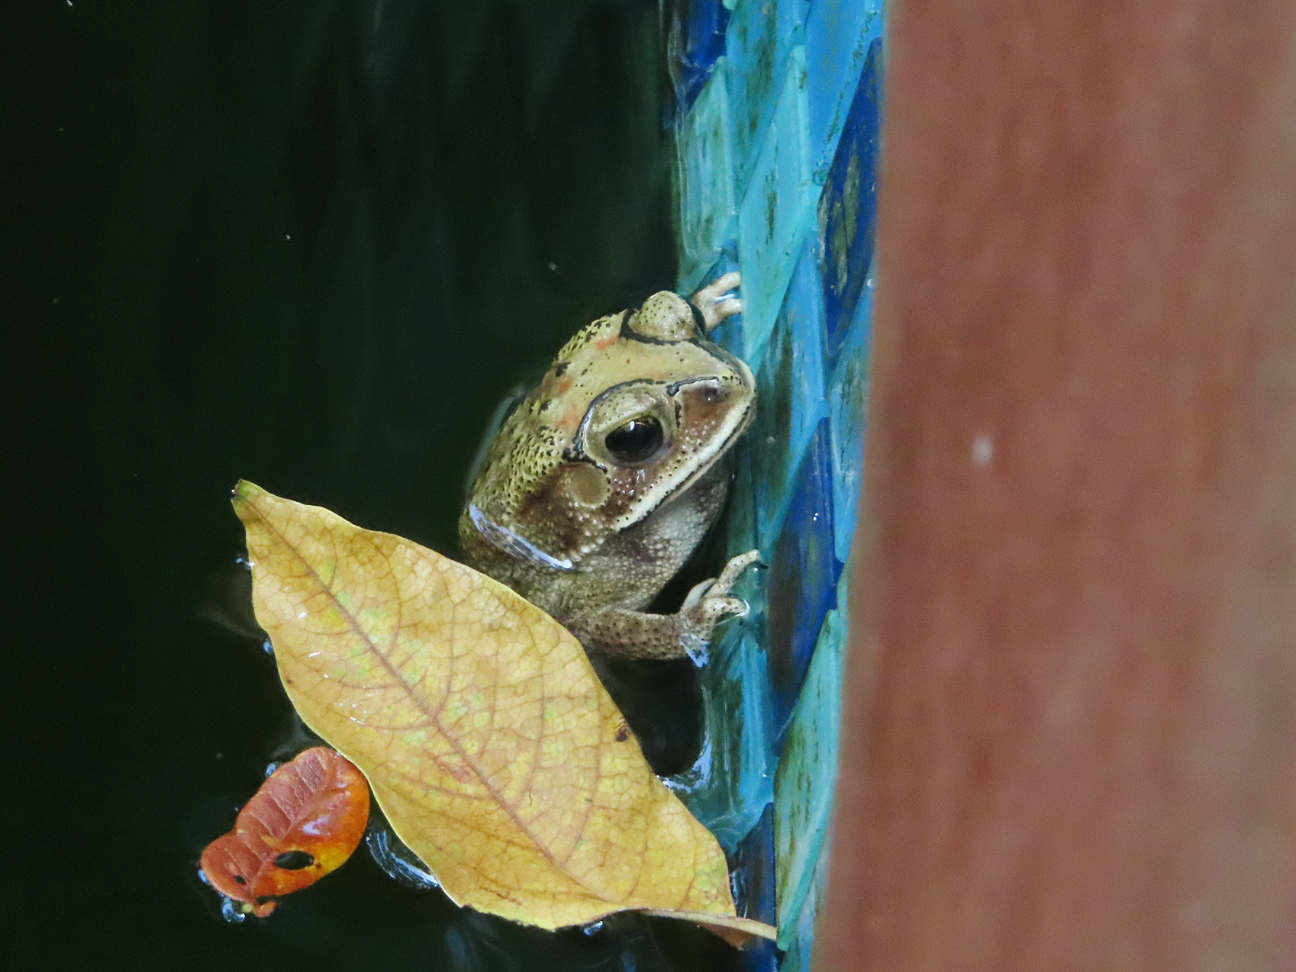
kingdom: Animalia
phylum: Chordata
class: Amphibia
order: Anura
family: Bufonidae
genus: Duttaphrynus
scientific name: Duttaphrynus melanostictus
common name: Common sunda toad
